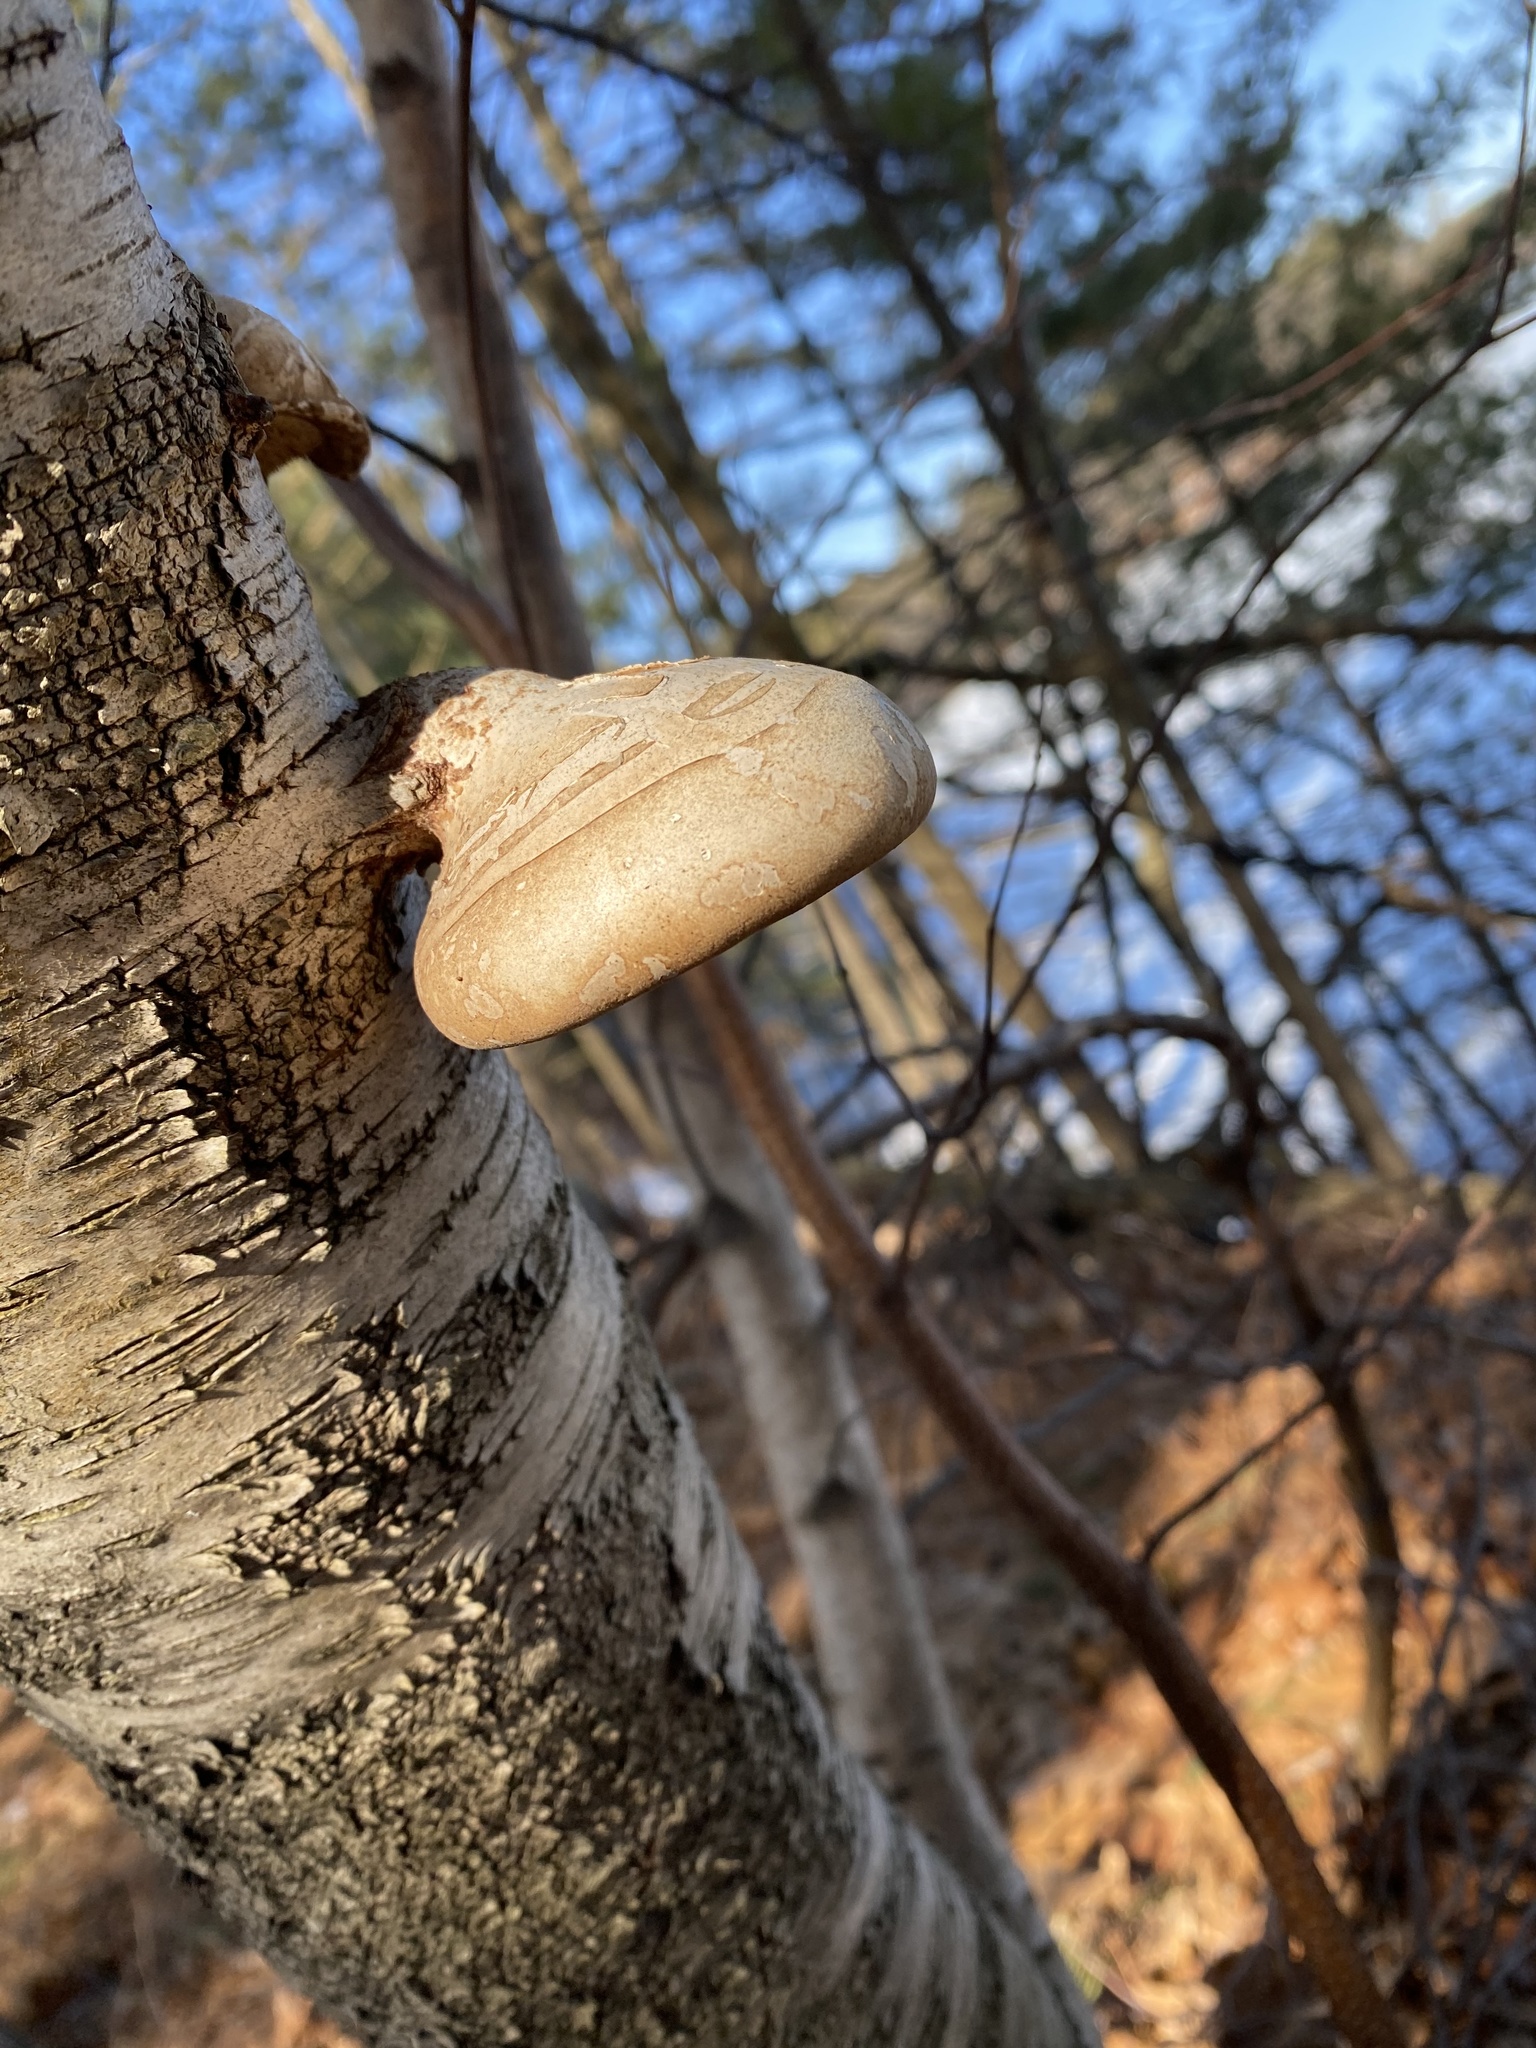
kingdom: Fungi
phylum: Basidiomycota
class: Agaricomycetes
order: Polyporales
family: Fomitopsidaceae
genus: Fomitopsis
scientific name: Fomitopsis betulina
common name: Birch polypore
